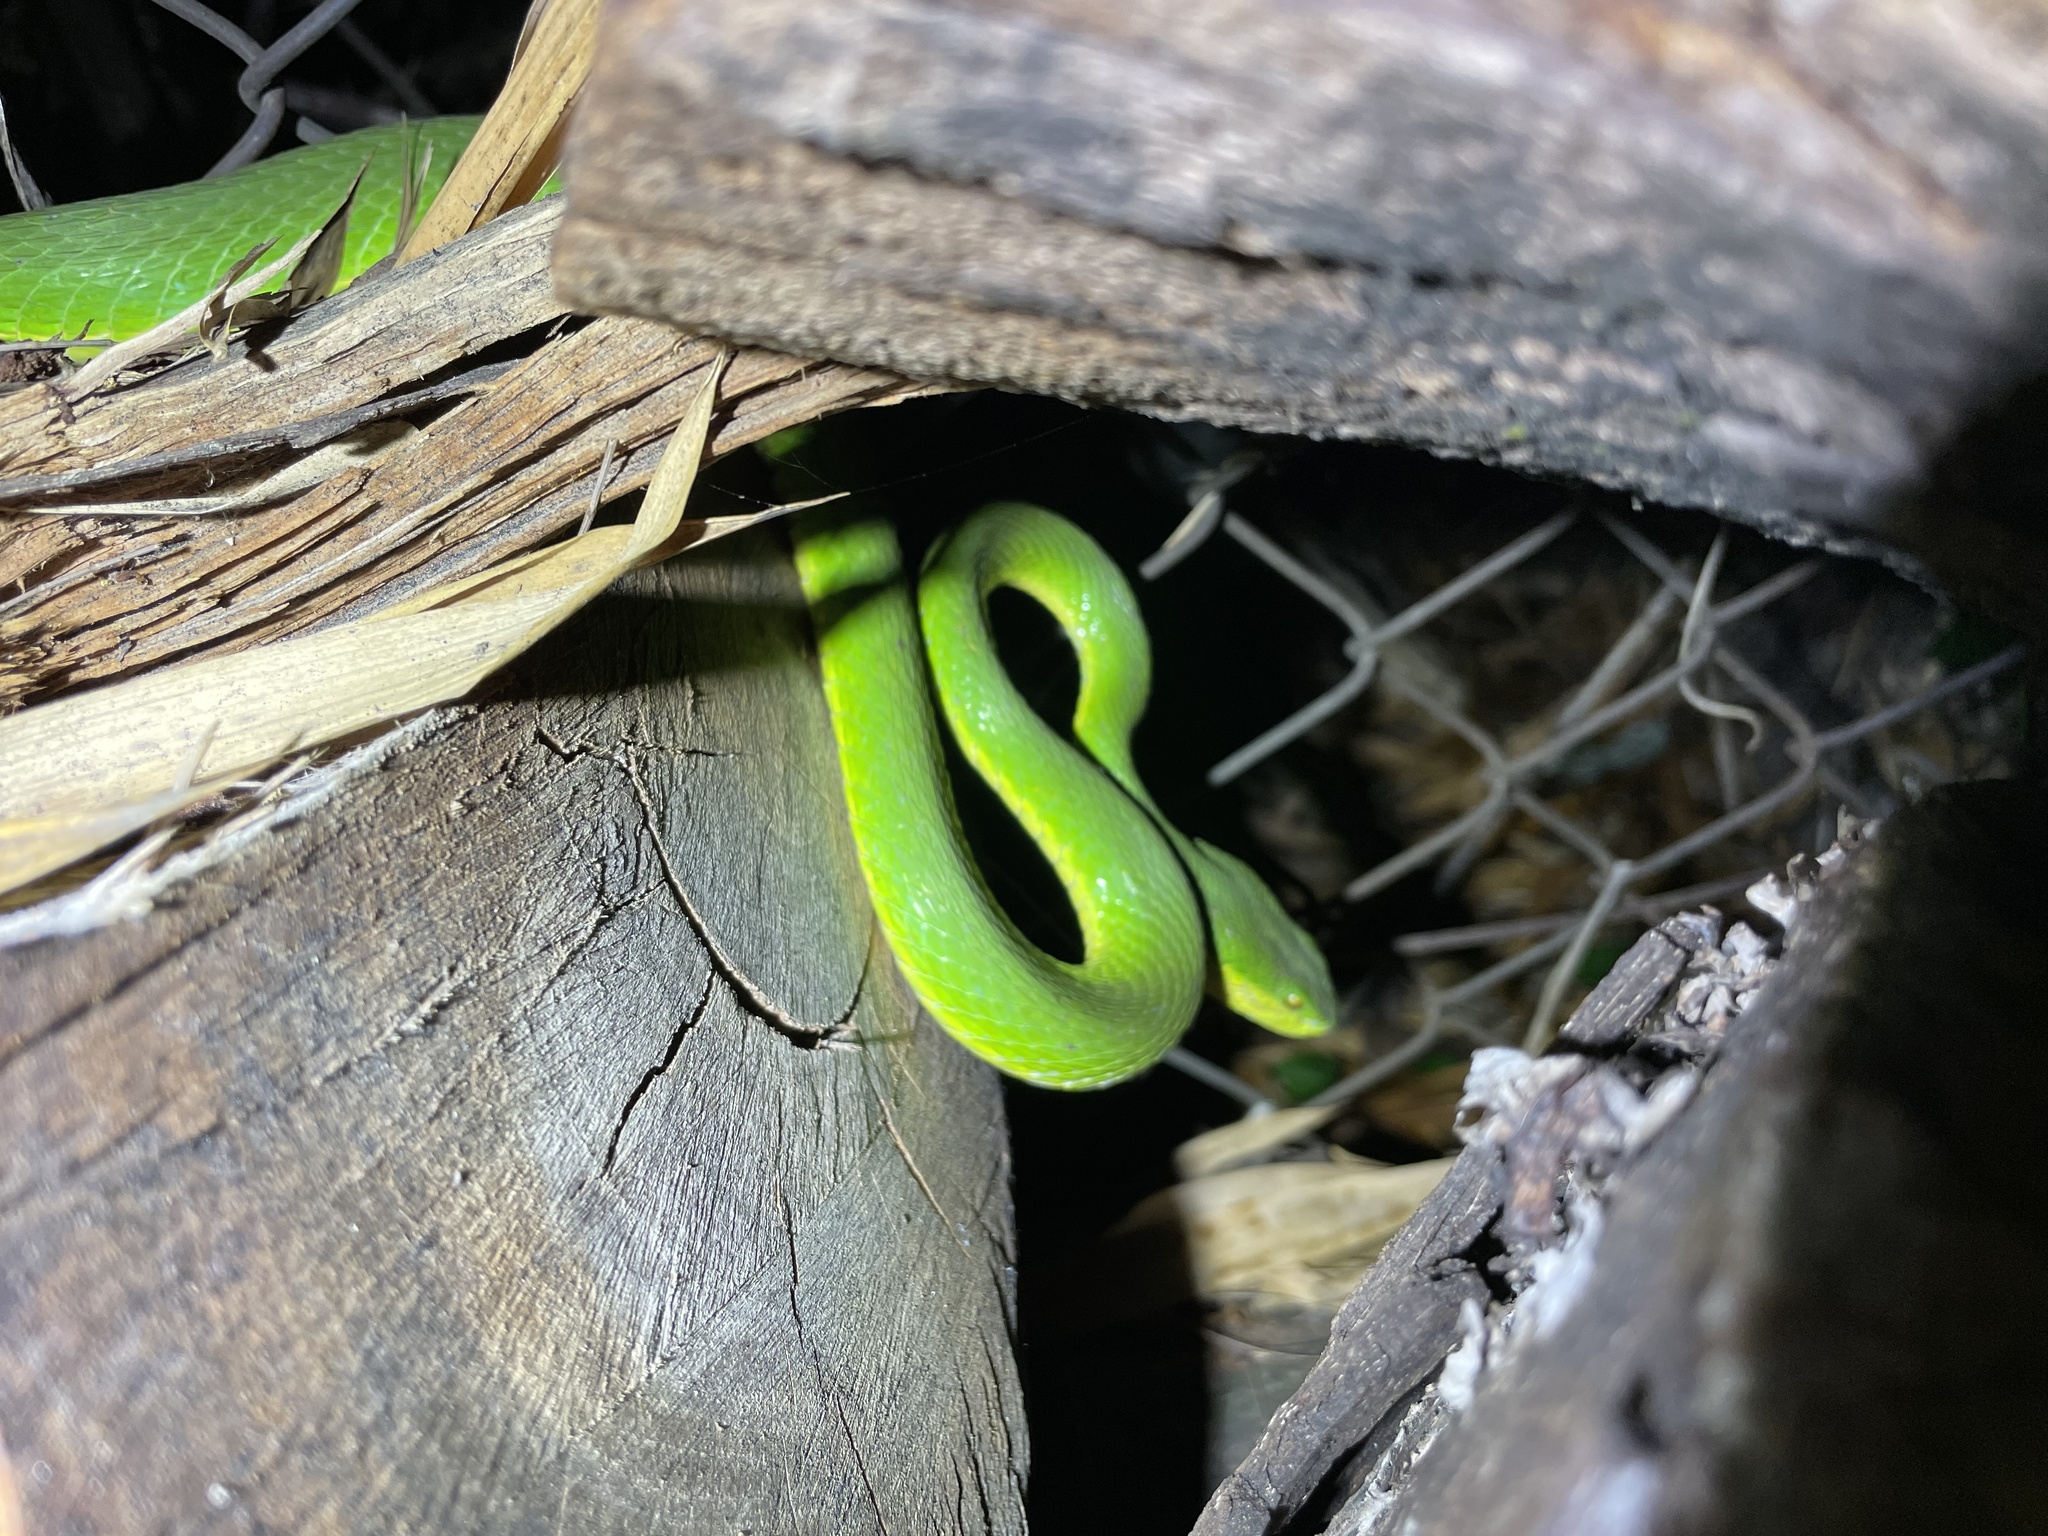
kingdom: Animalia
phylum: Chordata
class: Squamata
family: Viperidae
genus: Trimeresurus
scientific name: Trimeresurus albolabris
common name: White-lipped pitviper
